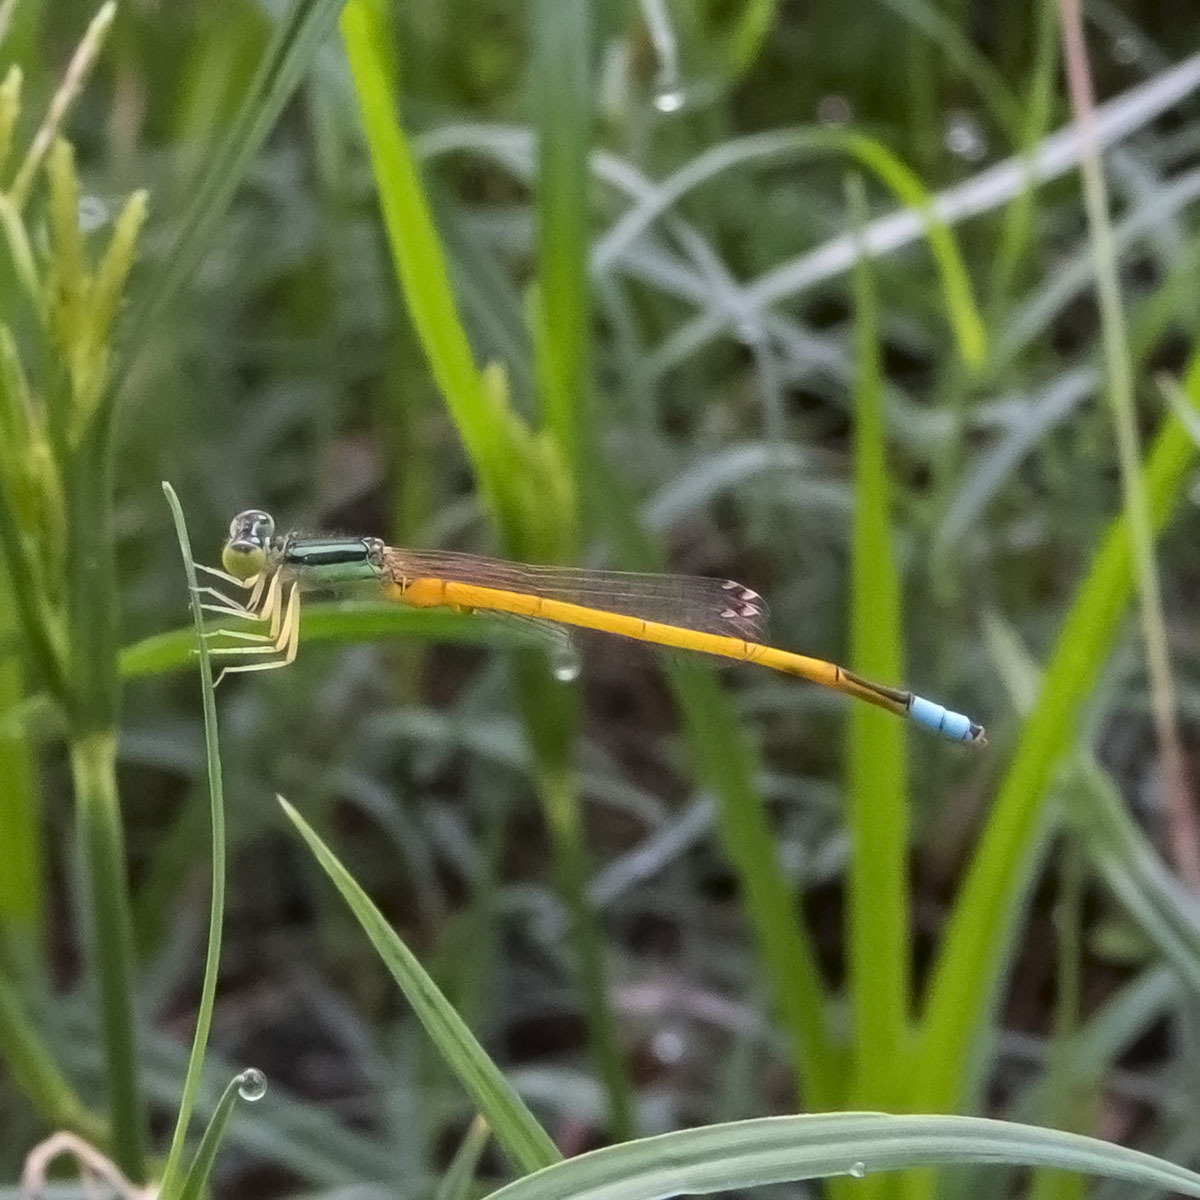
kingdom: Animalia
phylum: Arthropoda
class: Insecta
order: Odonata
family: Coenagrionidae
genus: Ischnura
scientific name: Ischnura rubilio
